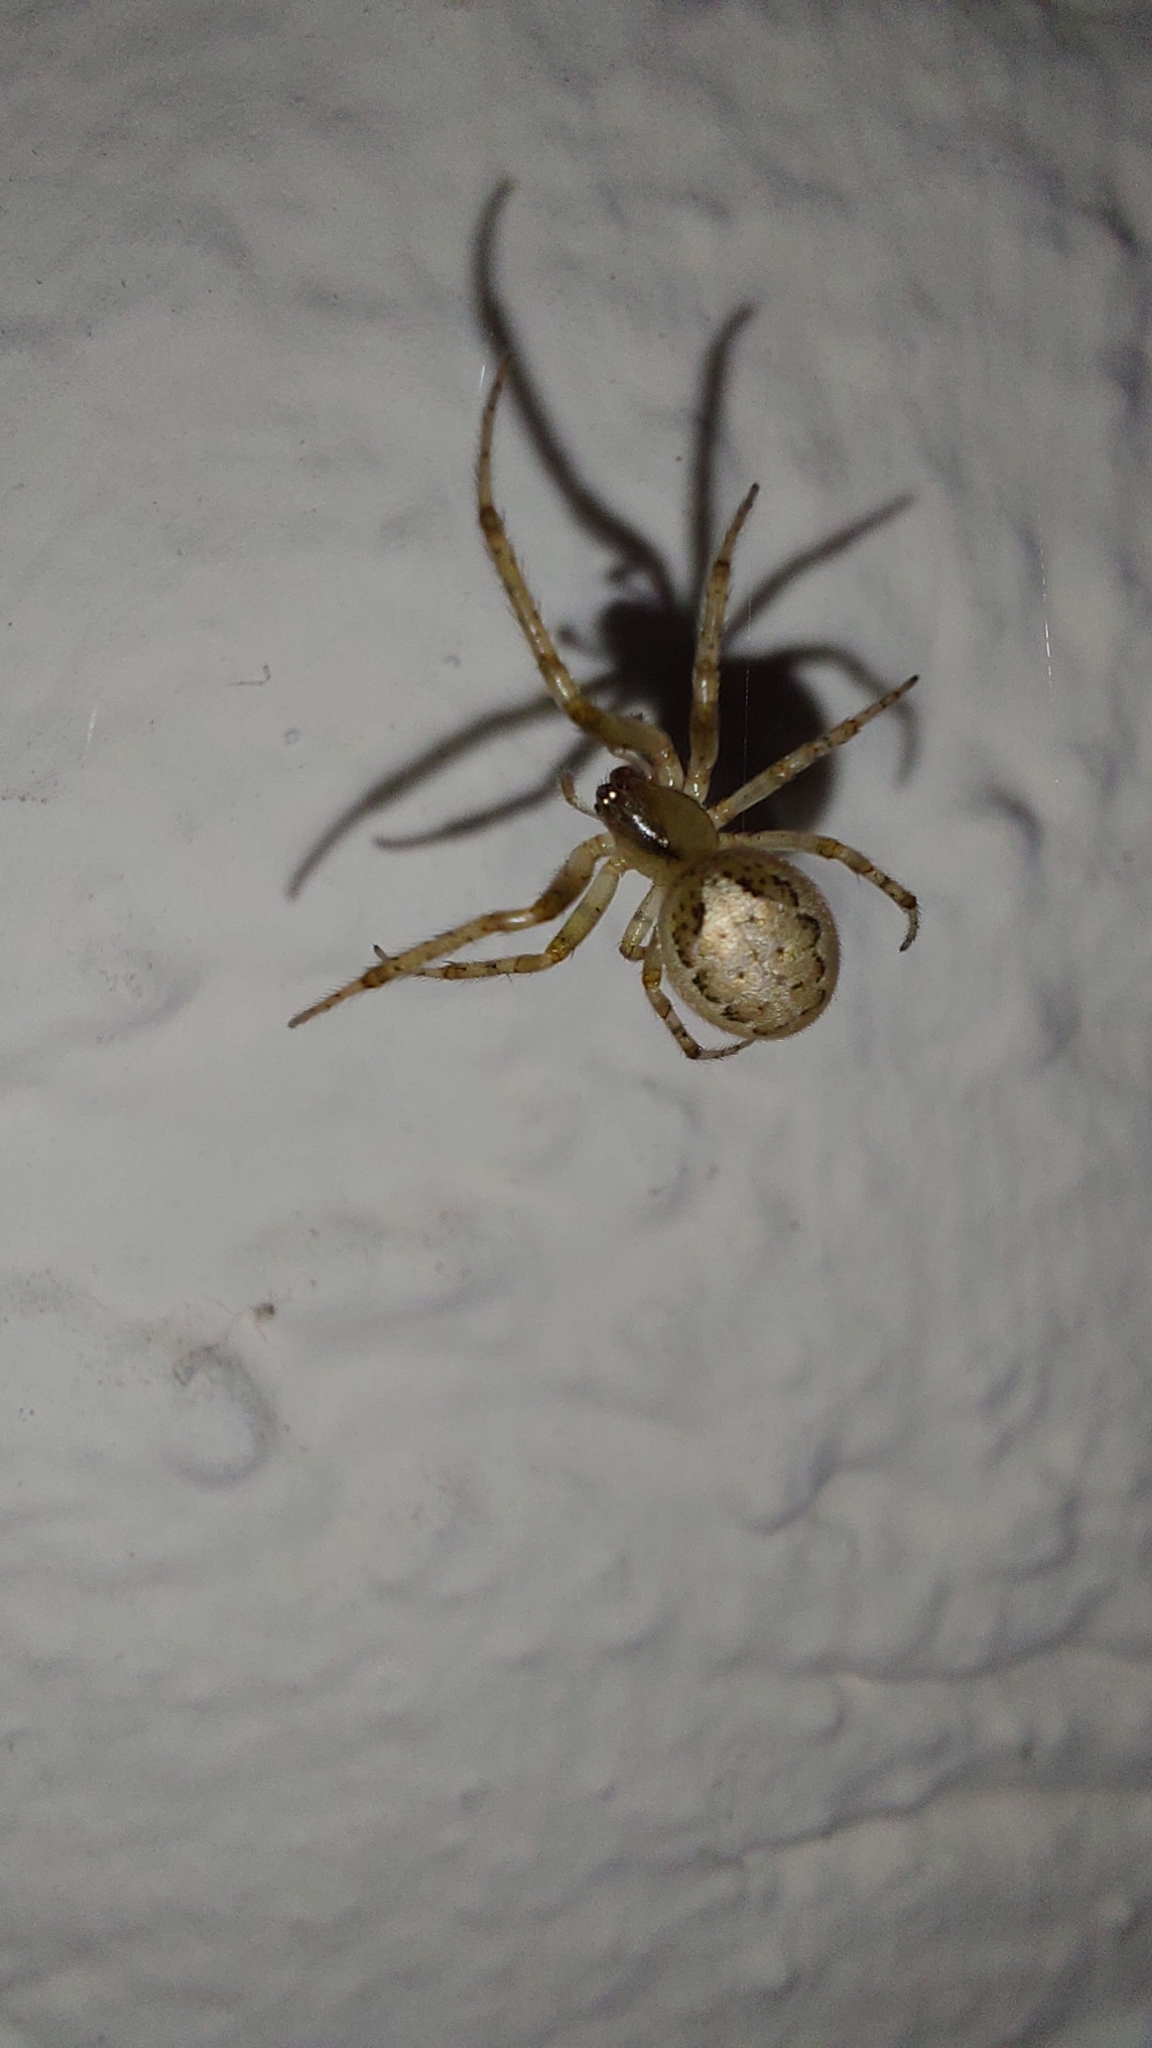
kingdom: Animalia
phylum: Arthropoda
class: Arachnida
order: Araneae
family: Araneidae
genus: Zygiella
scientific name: Zygiella x-notata
